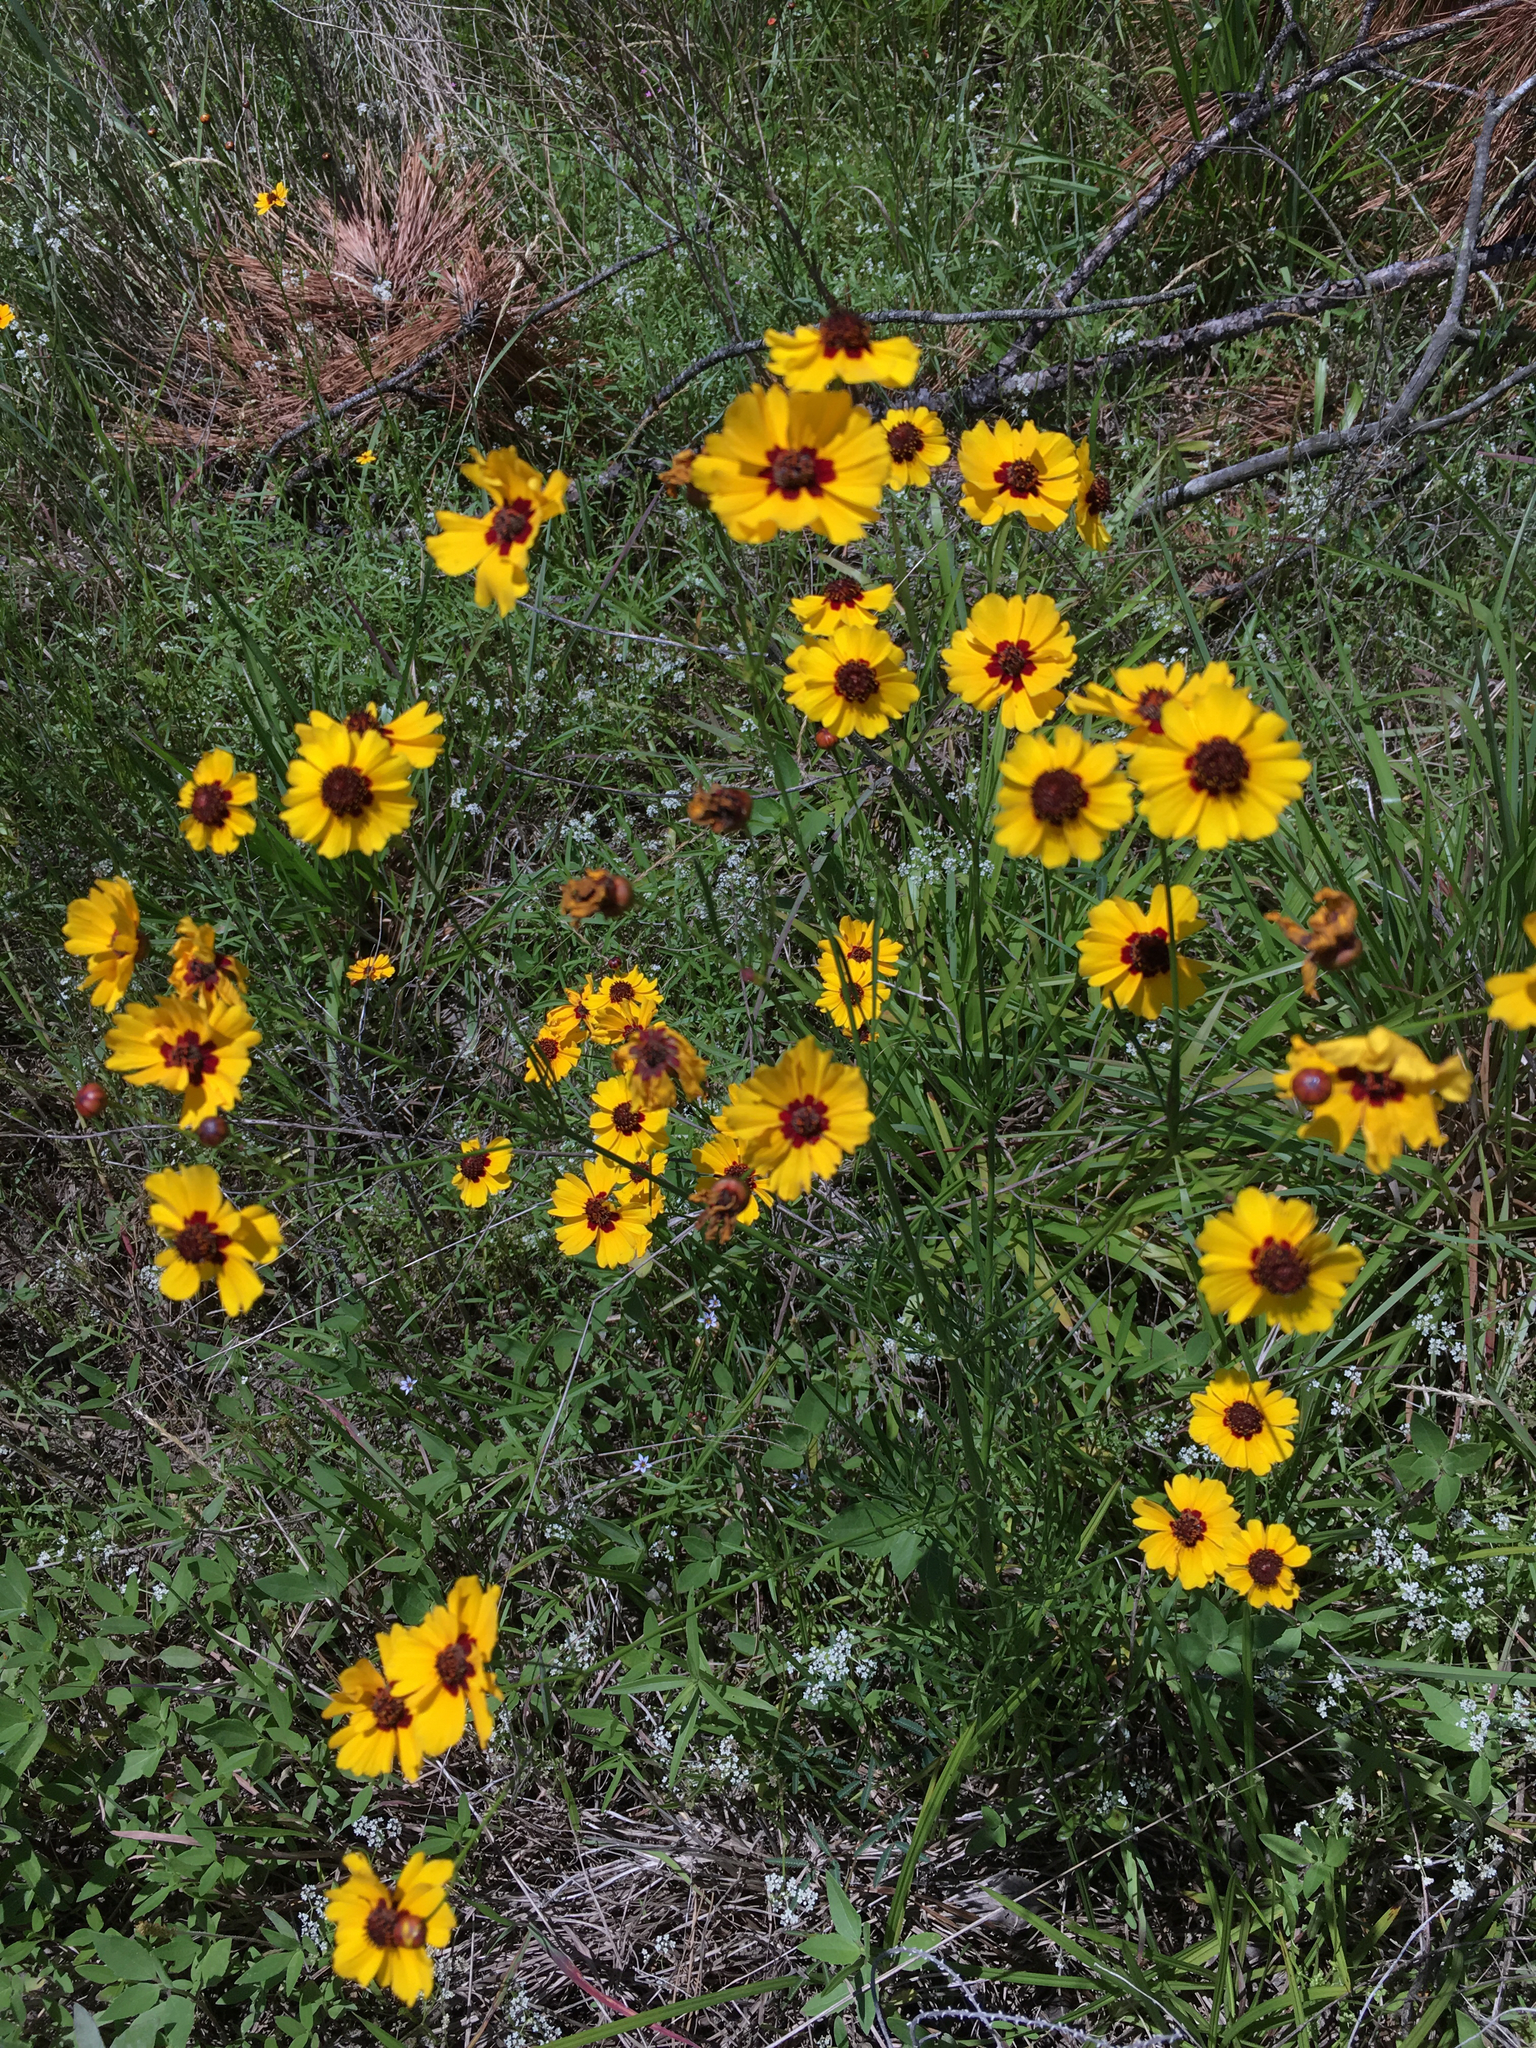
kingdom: Plantae
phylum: Tracheophyta
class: Magnoliopsida
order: Asterales
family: Asteraceae
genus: Coreopsis
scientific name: Coreopsis tinctoria
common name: Garden tickseed
